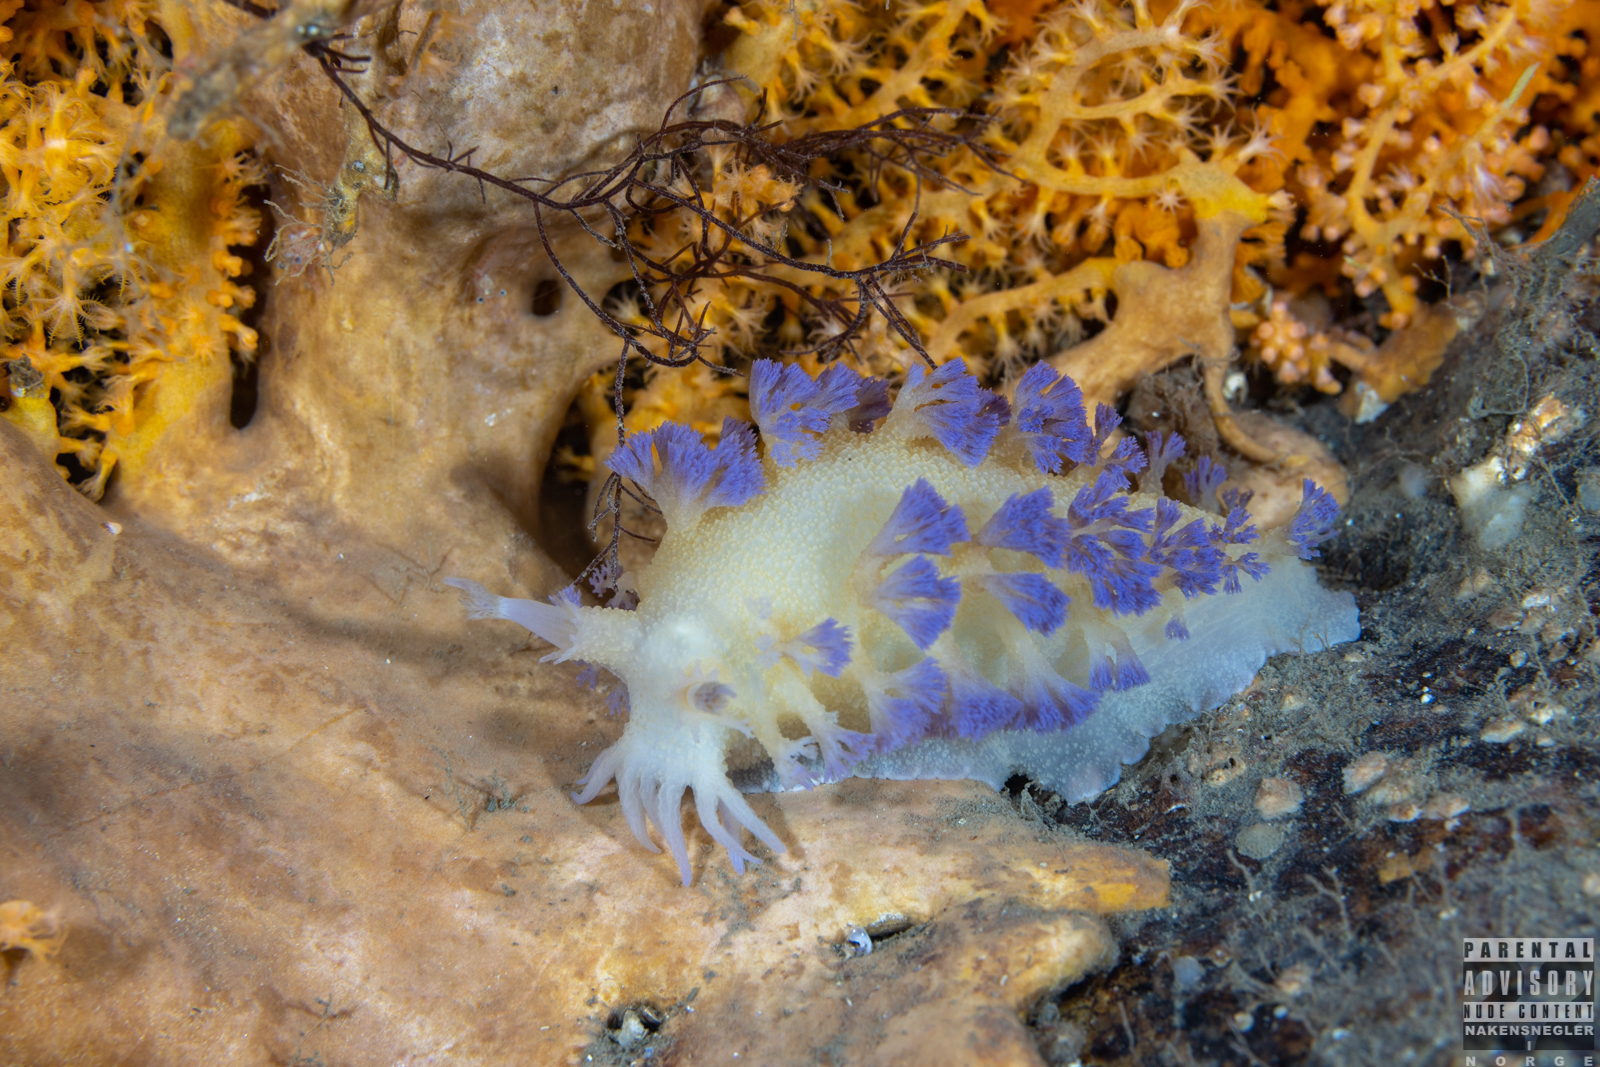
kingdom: Animalia
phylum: Mollusca
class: Gastropoda
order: Nudibranchia
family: Tritoniidae
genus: Tritonia
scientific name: Tritonia griegi
